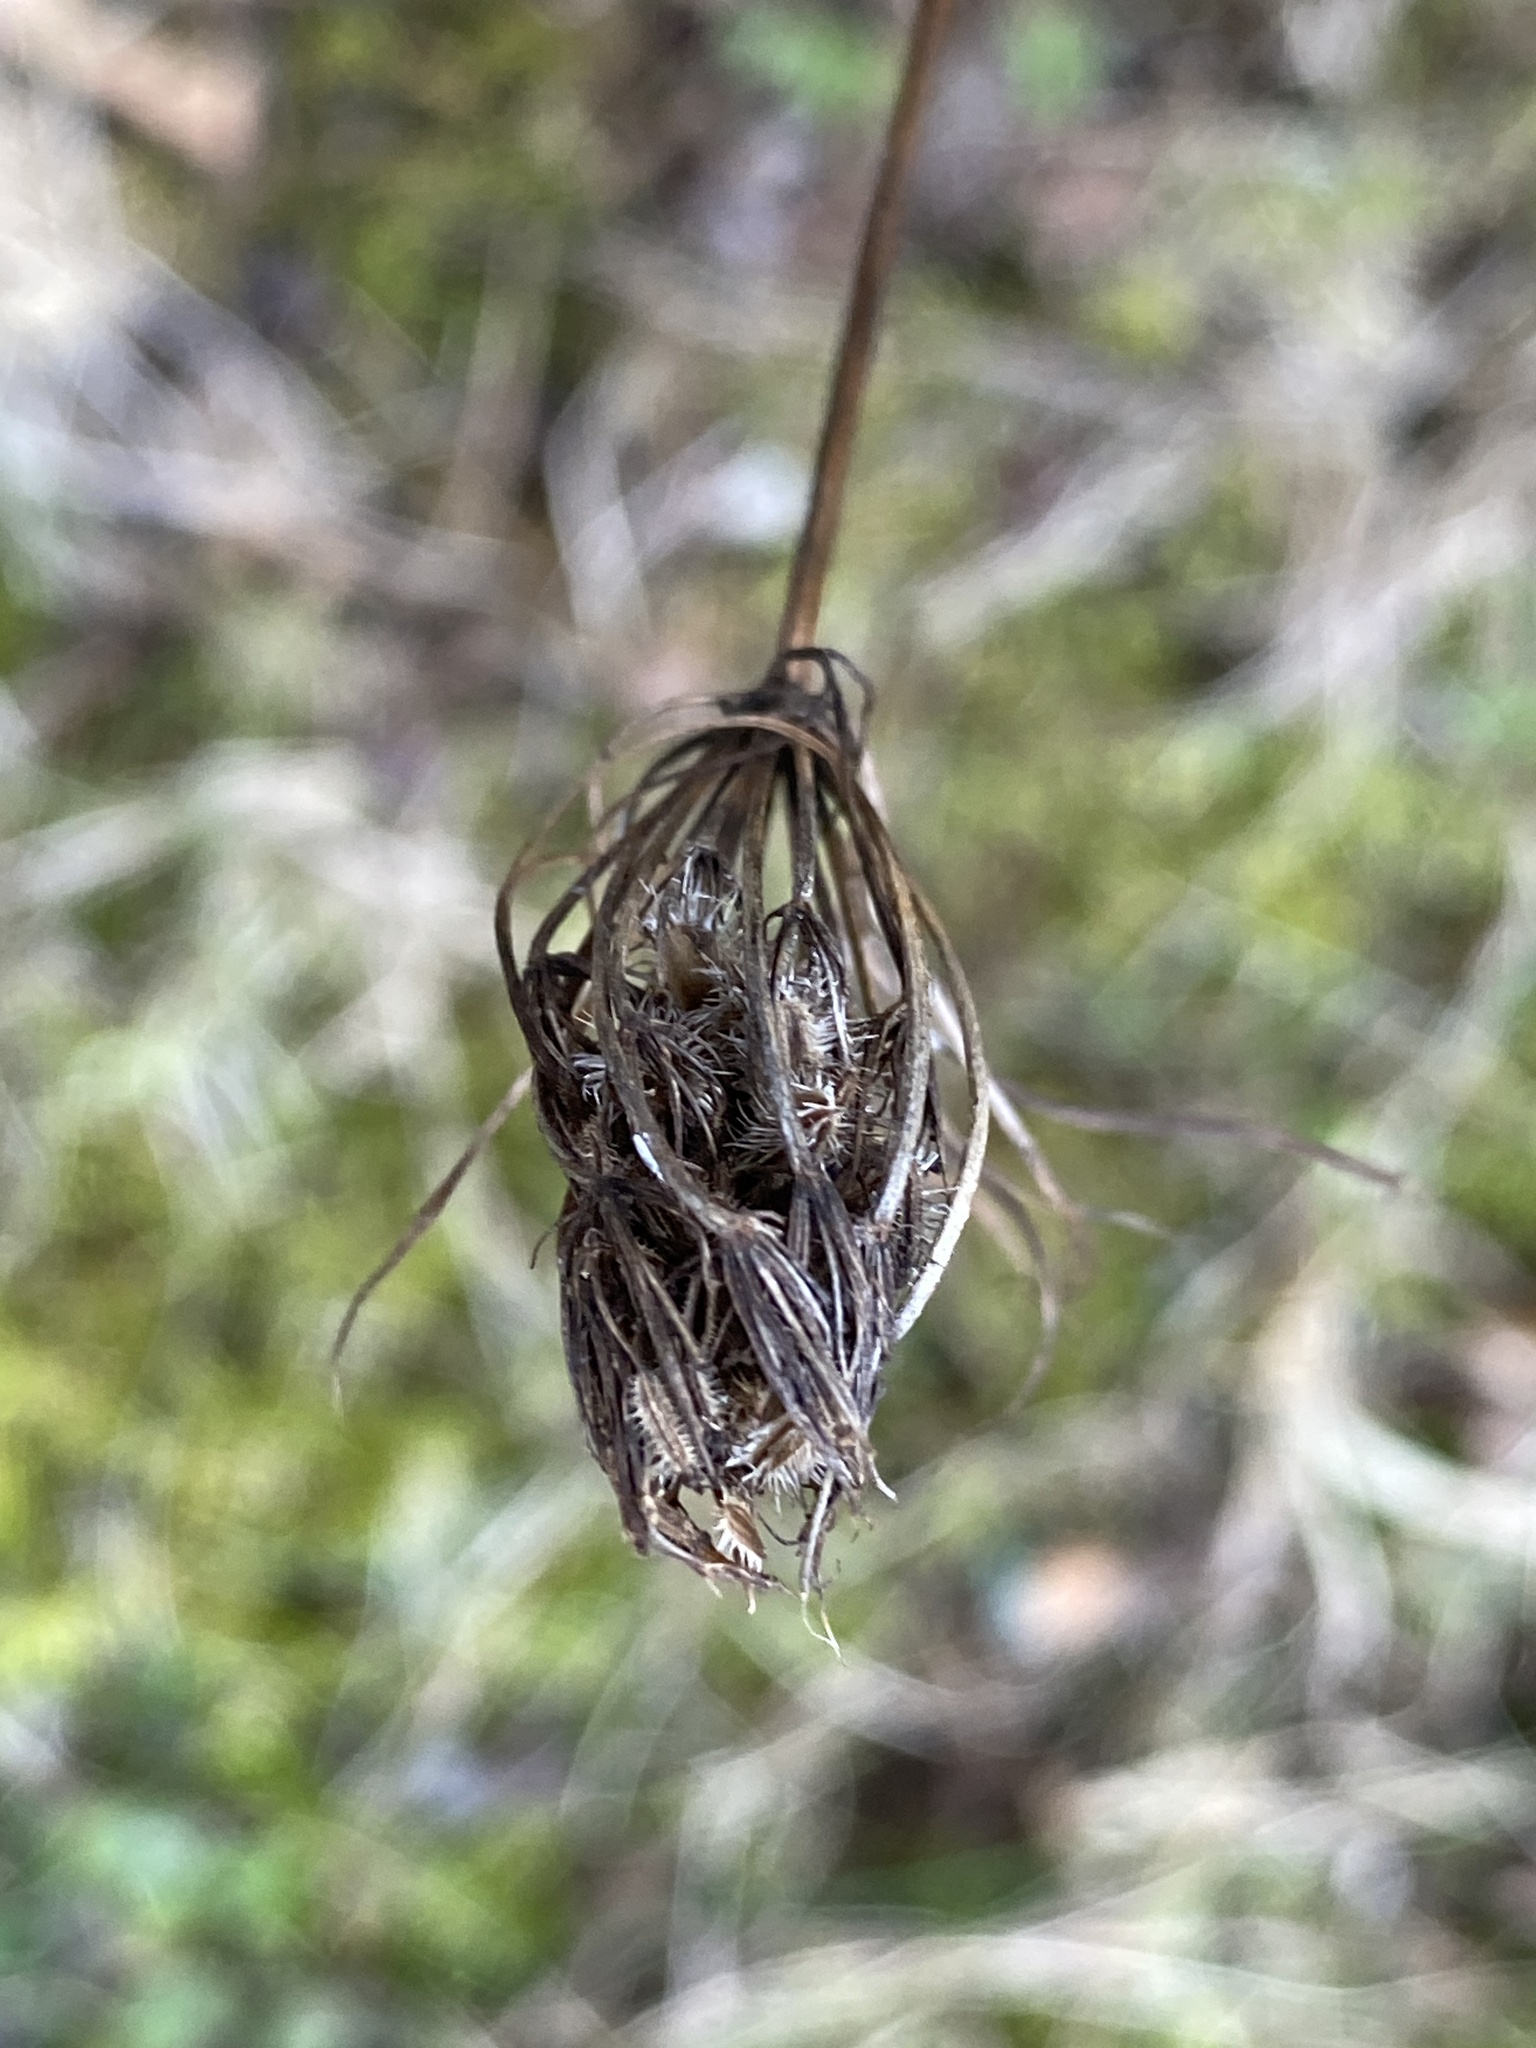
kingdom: Plantae
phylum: Tracheophyta
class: Magnoliopsida
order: Apiales
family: Apiaceae
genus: Daucus
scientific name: Daucus carota
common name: Wild carrot
